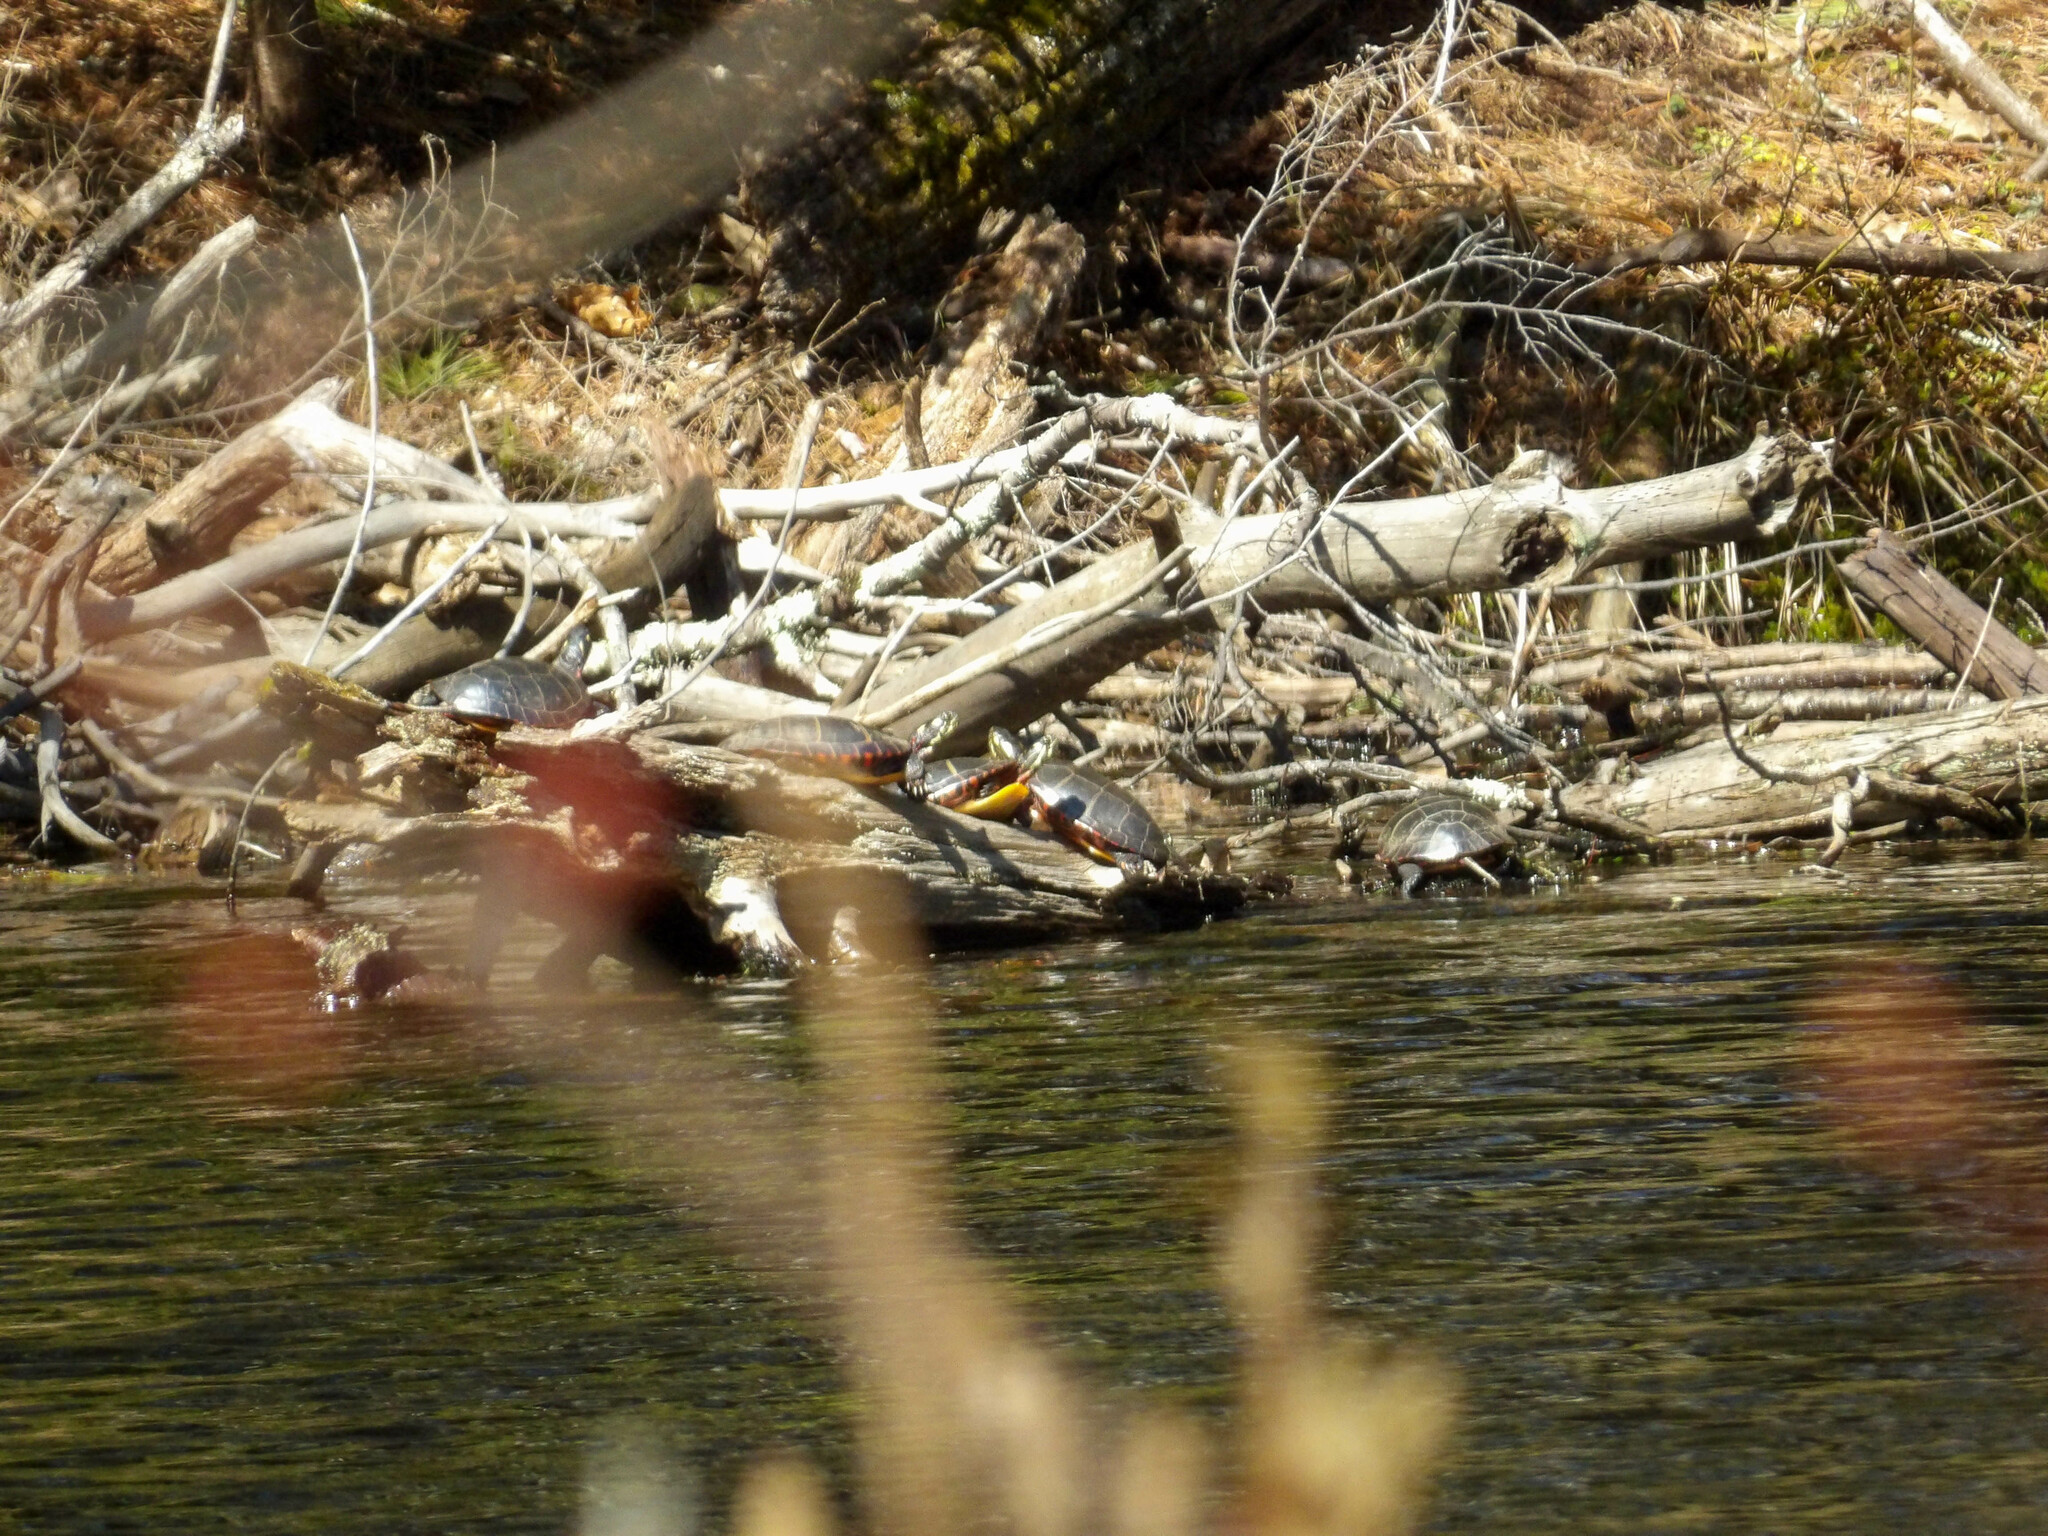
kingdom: Animalia
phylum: Chordata
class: Testudines
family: Emydidae
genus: Chrysemys
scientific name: Chrysemys picta
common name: Painted turtle
